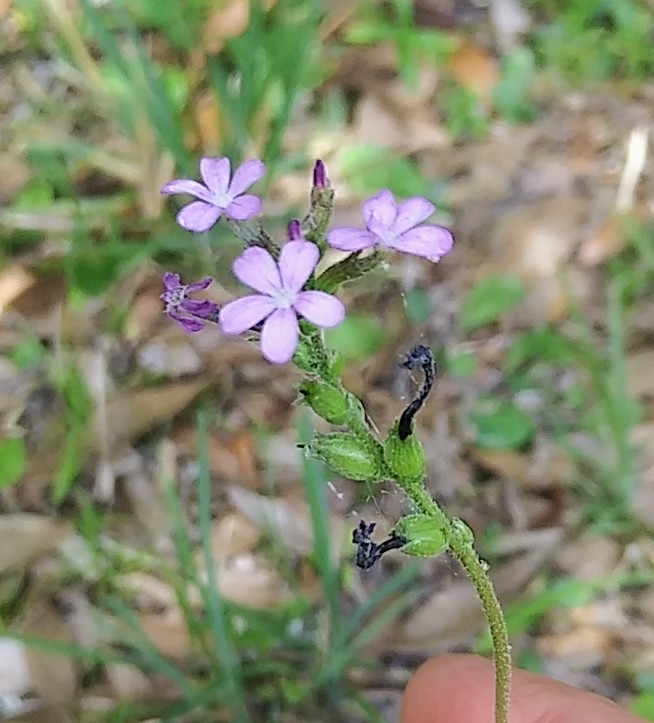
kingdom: Plantae
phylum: Tracheophyta
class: Magnoliopsida
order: Lamiales
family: Orobanchaceae
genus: Buchnera
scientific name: Buchnera floridana
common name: Florida bluehearts
